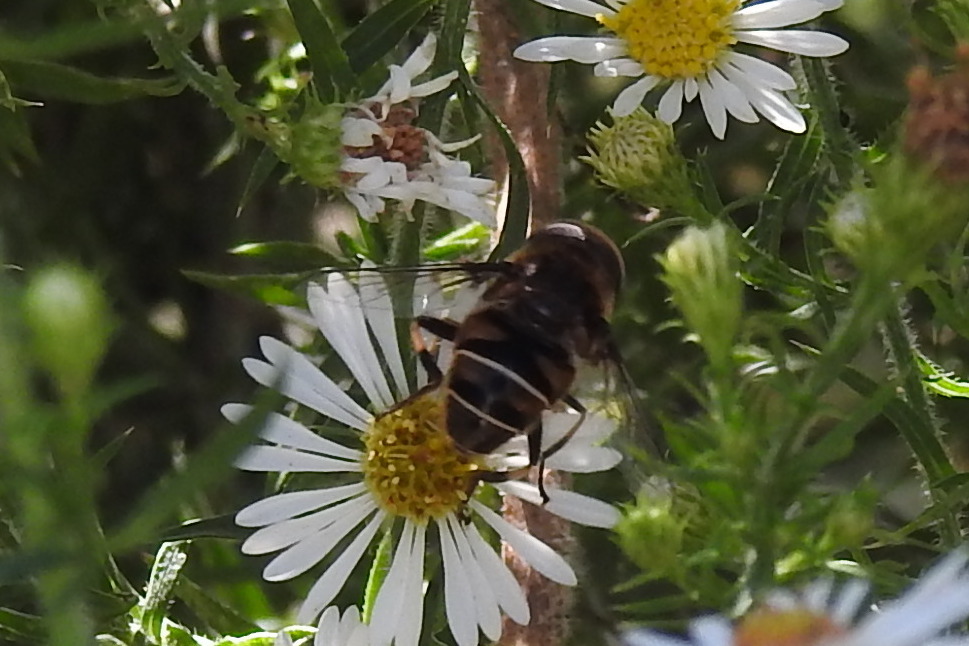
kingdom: Animalia
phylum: Arthropoda
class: Insecta
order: Diptera
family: Syrphidae
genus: Eristalis
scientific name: Eristalis dimidiata
